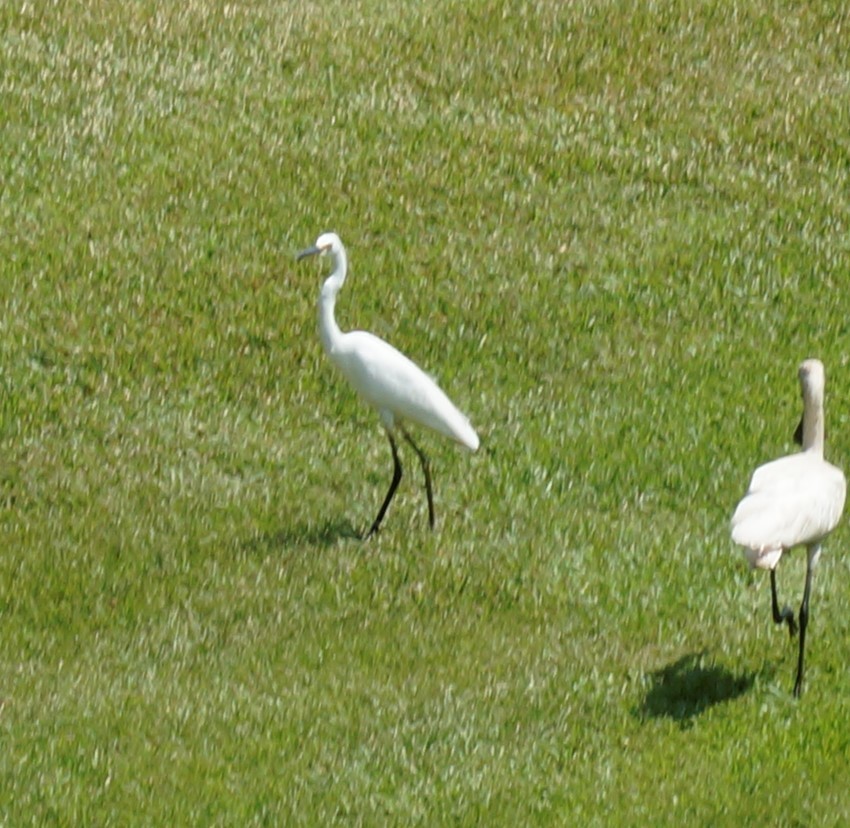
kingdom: Animalia
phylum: Chordata
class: Aves
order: Pelecaniformes
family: Ardeidae
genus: Egretta
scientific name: Egretta garzetta
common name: Little egret
